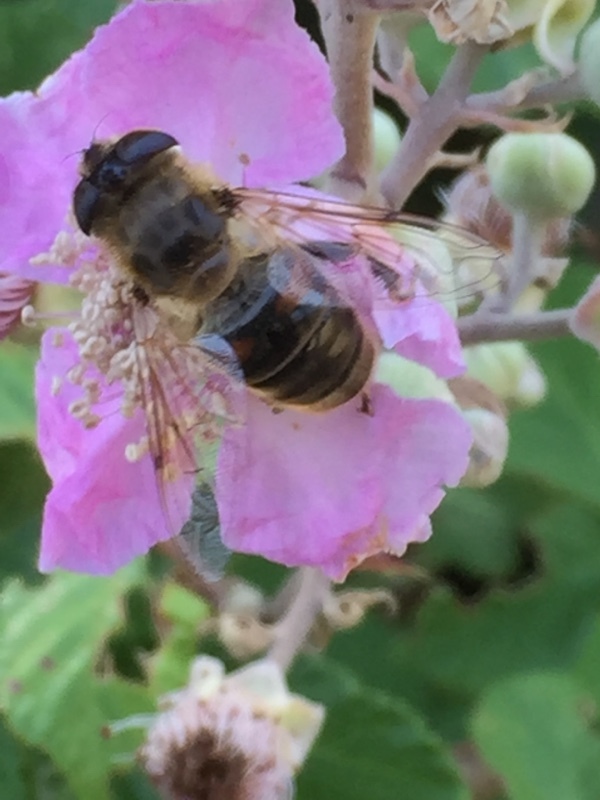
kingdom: Animalia
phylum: Arthropoda
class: Insecta
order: Diptera
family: Syrphidae
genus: Eristalis
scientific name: Eristalis tenax
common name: Drone fly
